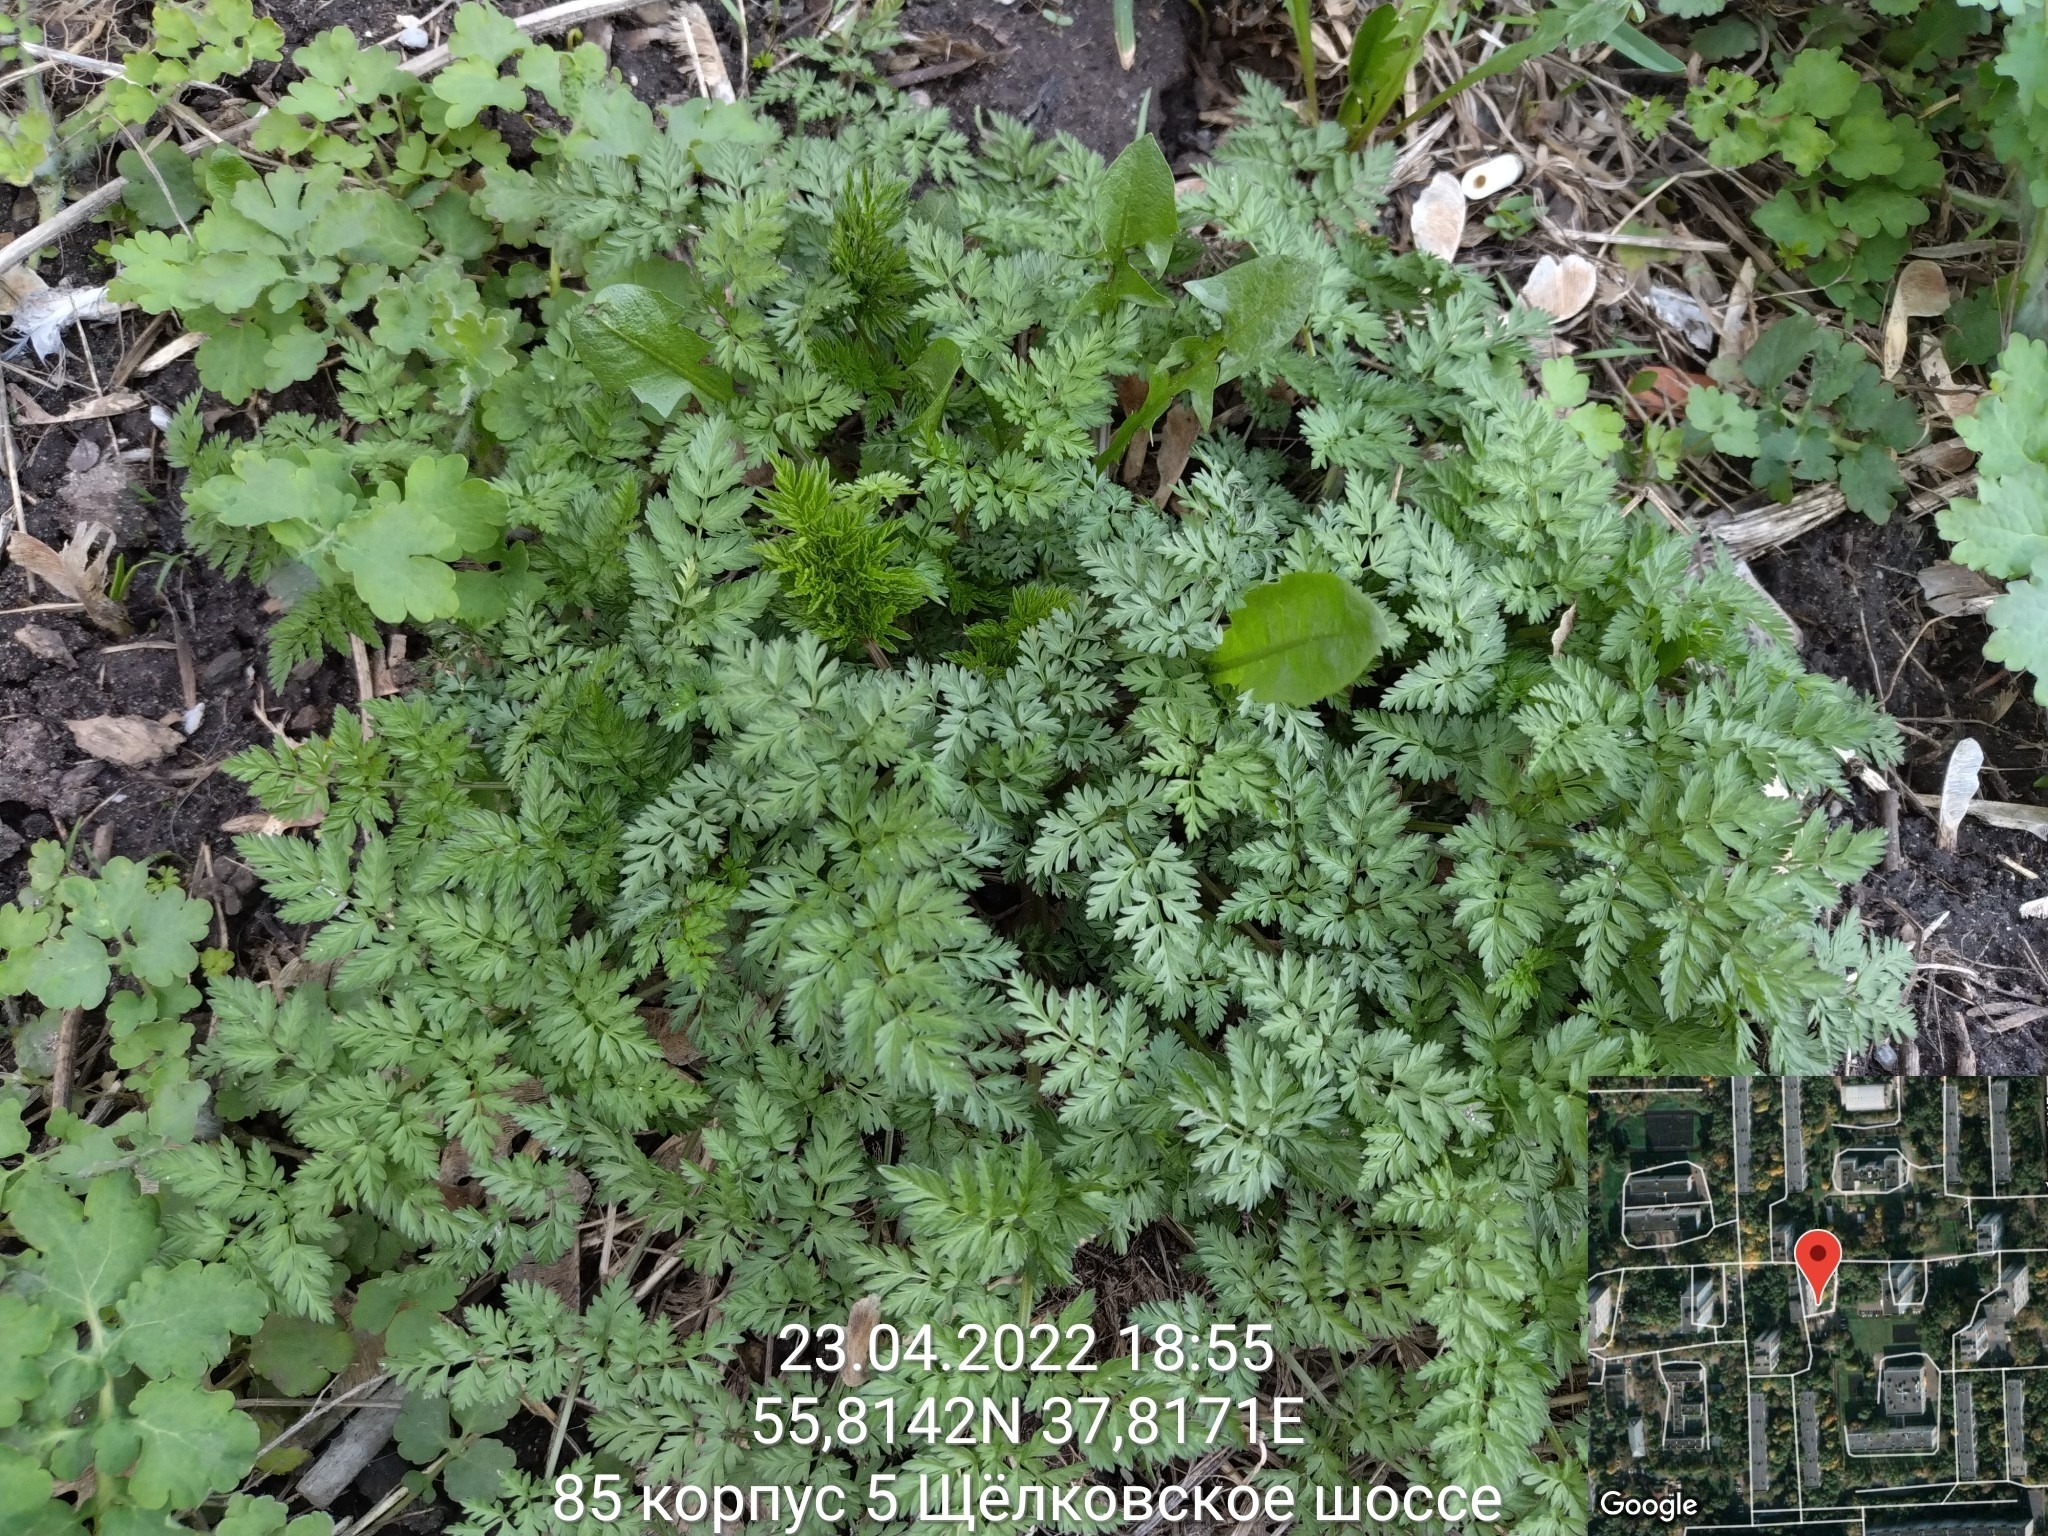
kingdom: Plantae
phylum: Tracheophyta
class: Magnoliopsida
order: Apiales
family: Apiaceae
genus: Anthriscus
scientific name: Anthriscus sylvestris
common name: Cow parsley
